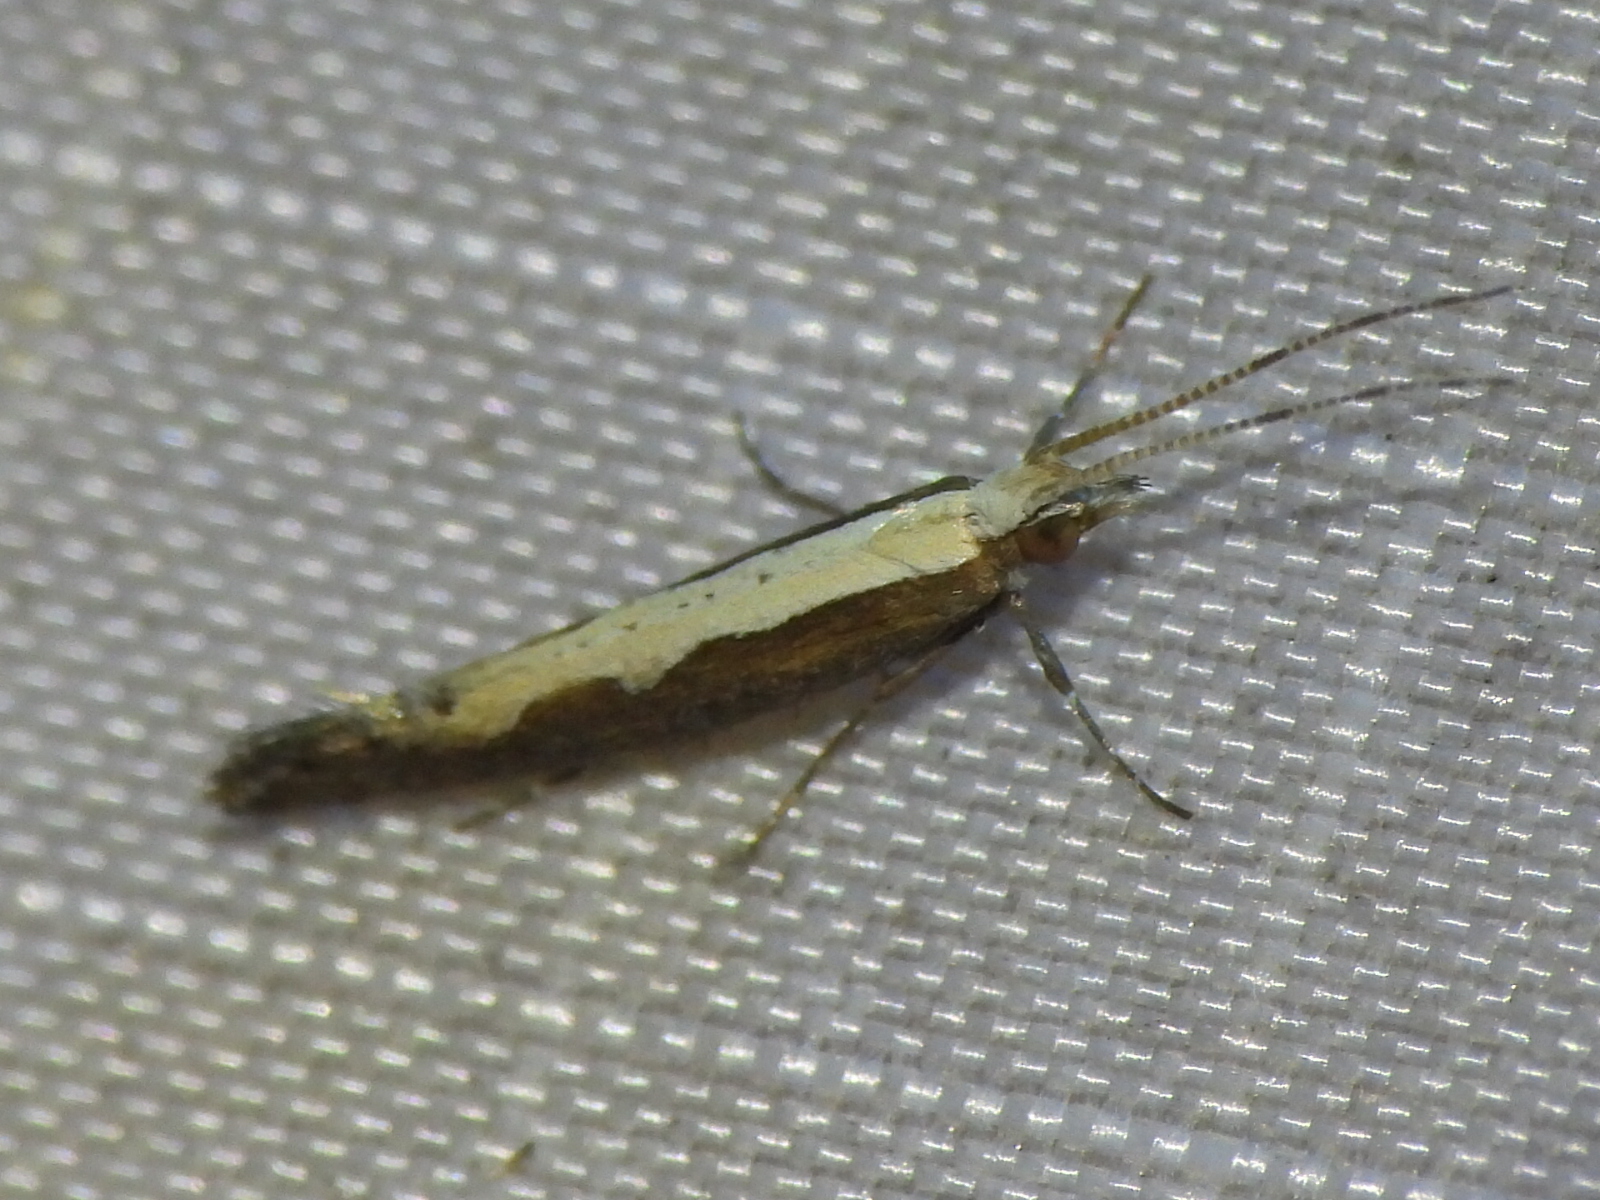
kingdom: Animalia
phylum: Arthropoda
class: Insecta
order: Lepidoptera
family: Plutellidae
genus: Plutella
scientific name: Plutella xylostella
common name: Diamond-back moth
